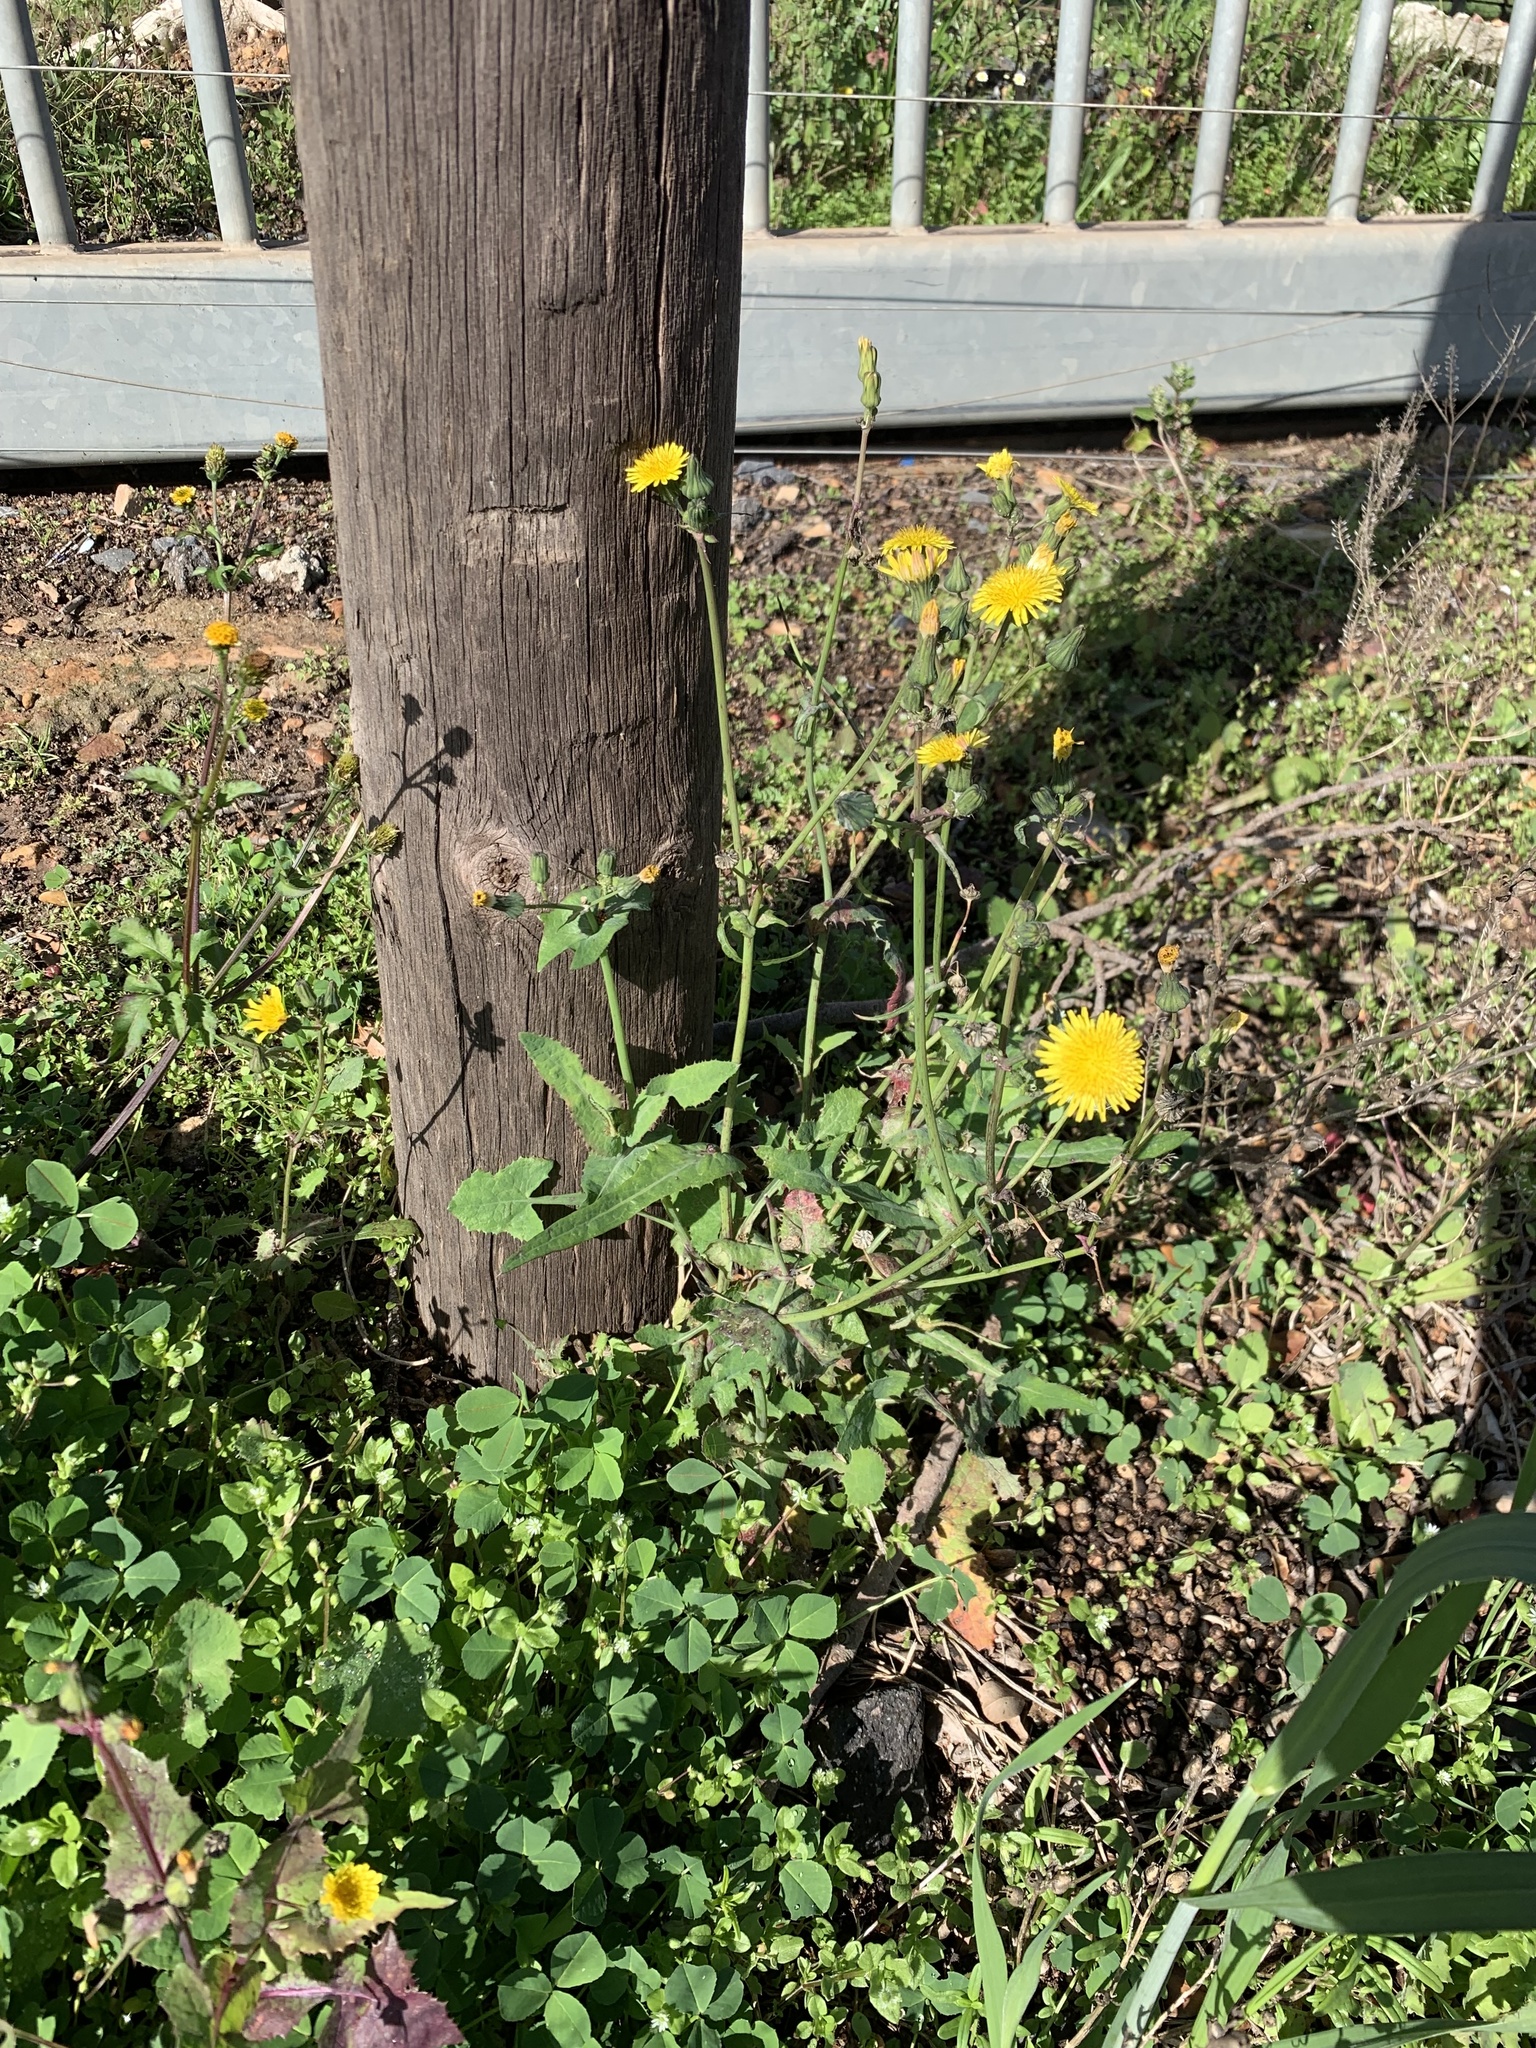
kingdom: Plantae
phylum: Tracheophyta
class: Magnoliopsida
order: Asterales
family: Asteraceae
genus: Sonchus
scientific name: Sonchus oleraceus
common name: Common sowthistle
